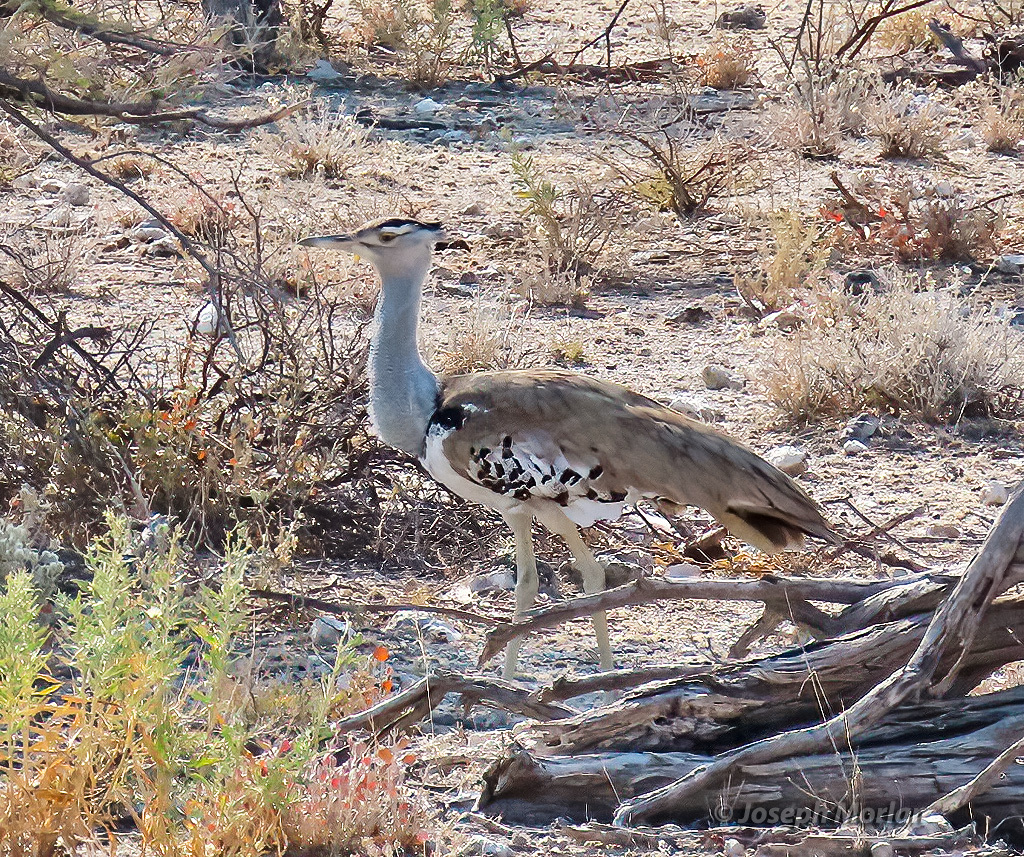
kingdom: Animalia
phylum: Chordata
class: Aves
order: Otidiformes
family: Otididae
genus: Ardeotis
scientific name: Ardeotis kori
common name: Kori bustard
